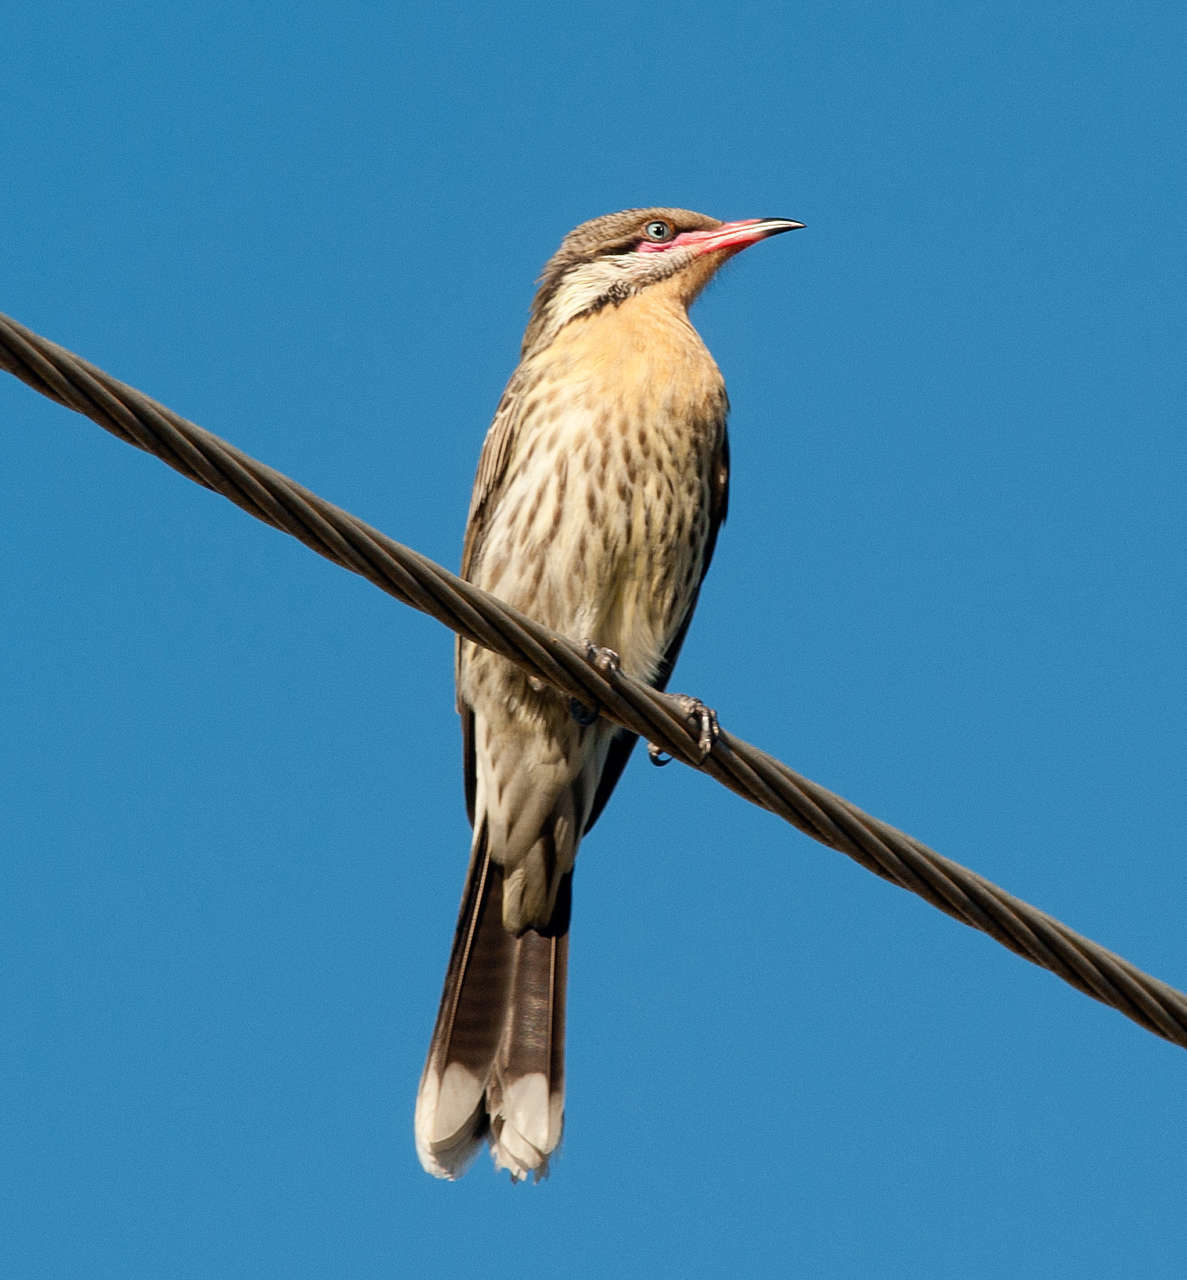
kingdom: Animalia
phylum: Chordata
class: Aves
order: Passeriformes
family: Meliphagidae
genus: Acanthagenys
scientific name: Acanthagenys rufogularis
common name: Spiny-cheeked honeyeater
